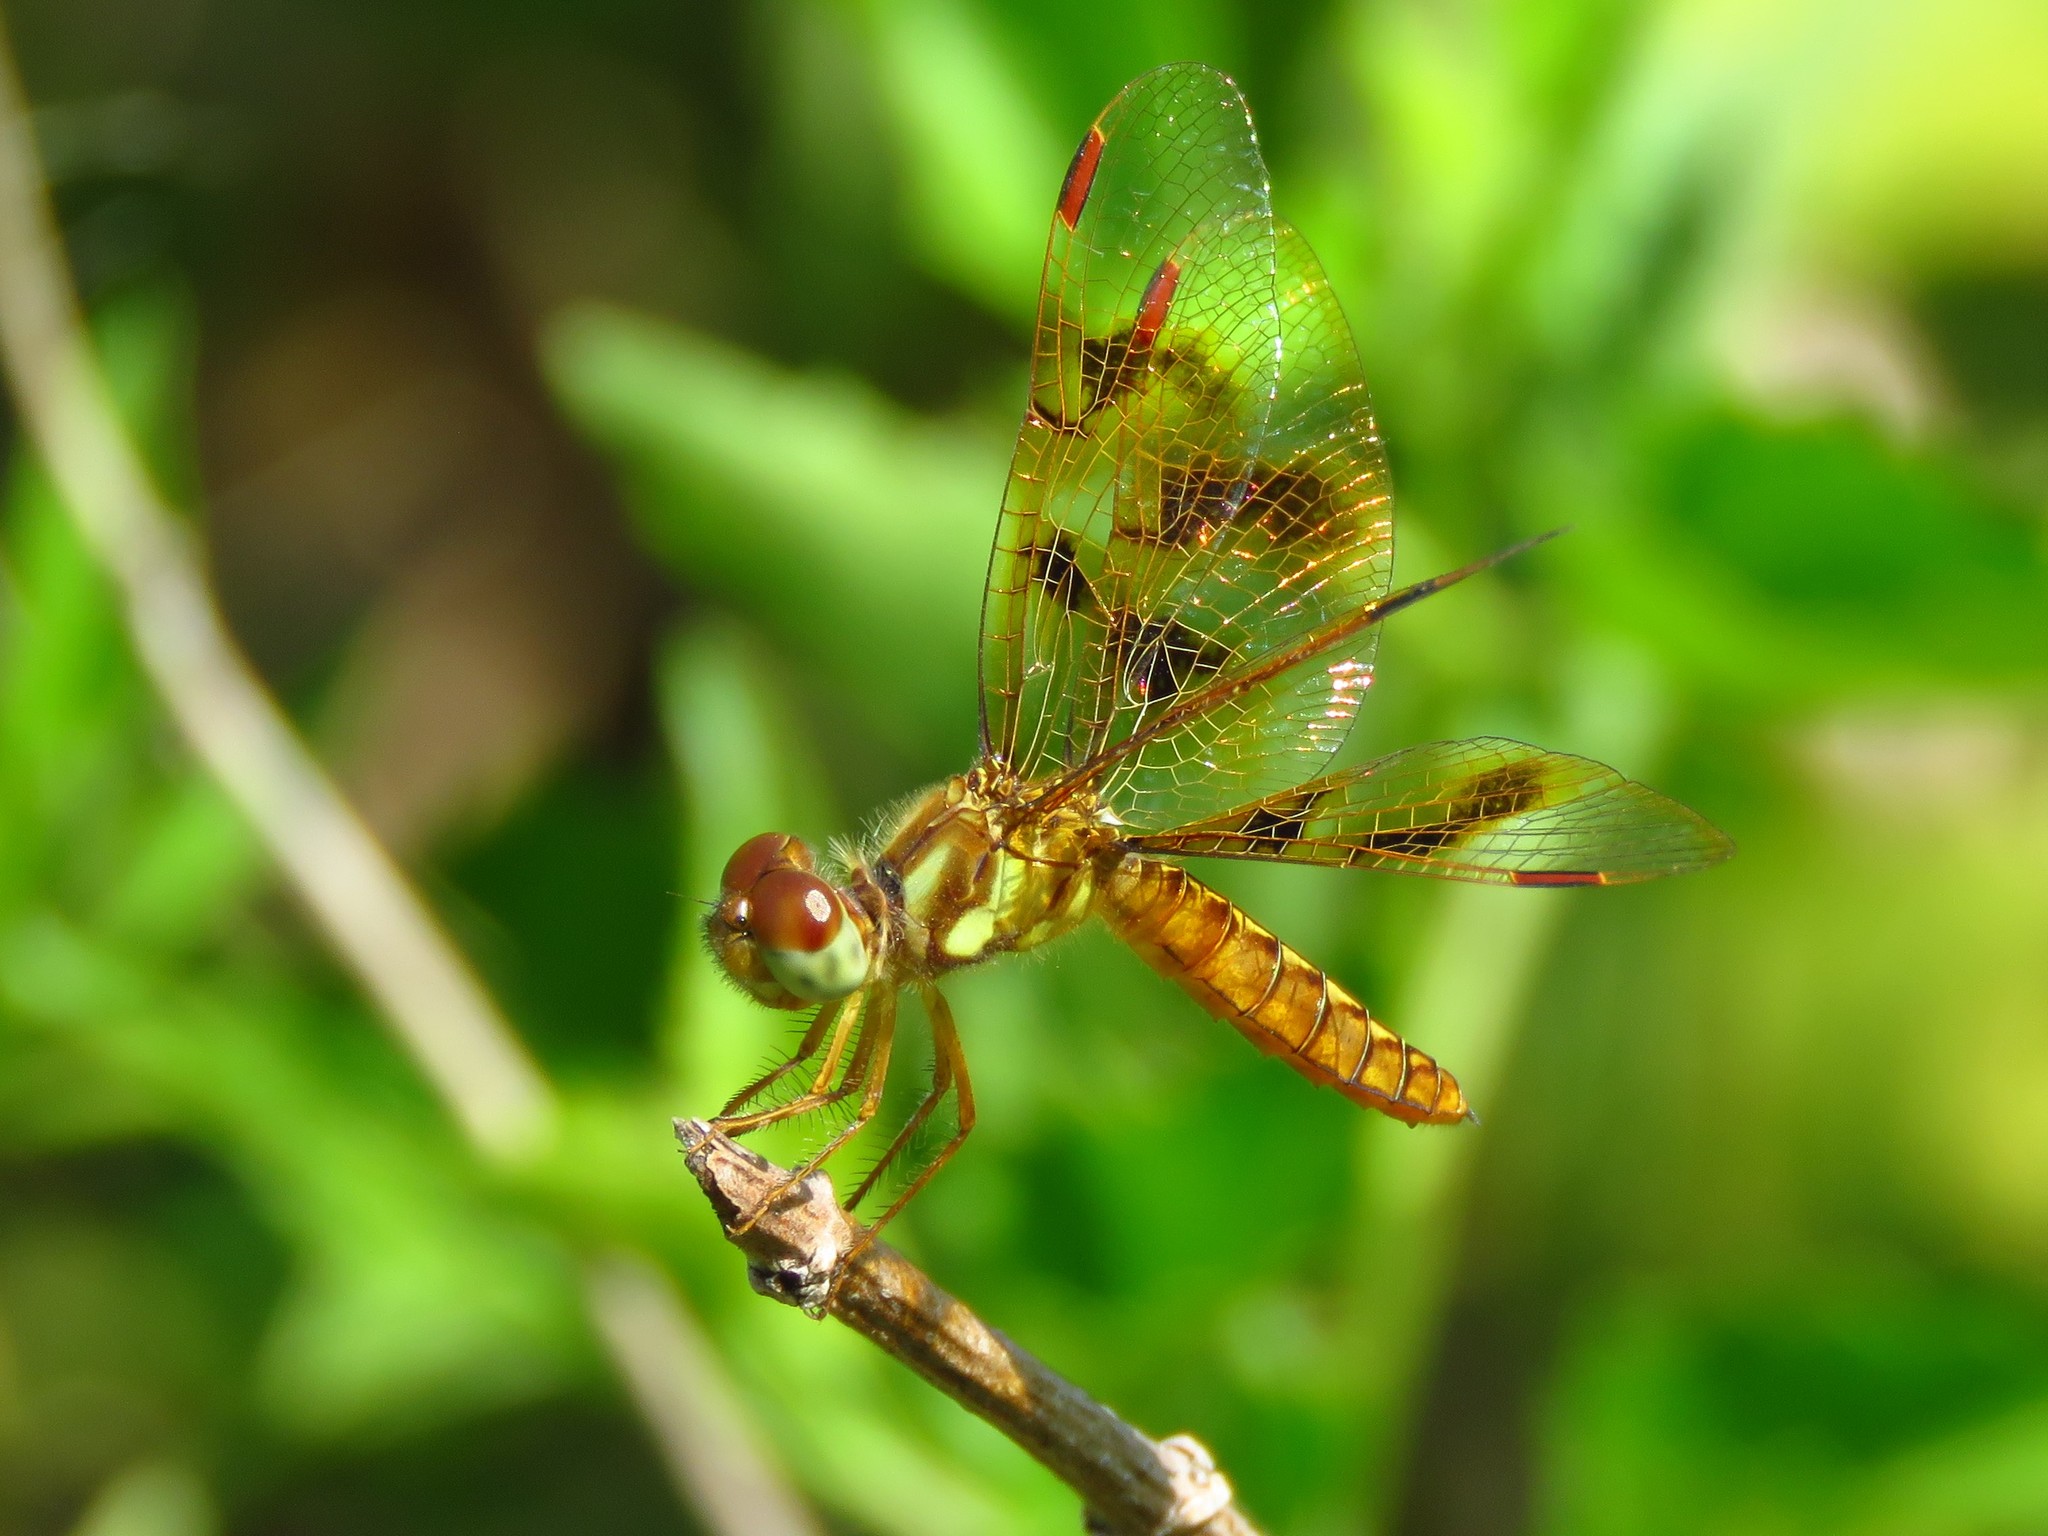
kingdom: Animalia
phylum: Arthropoda
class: Insecta
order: Odonata
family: Libellulidae
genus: Perithemis
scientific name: Perithemis tenera
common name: Eastern amberwing
